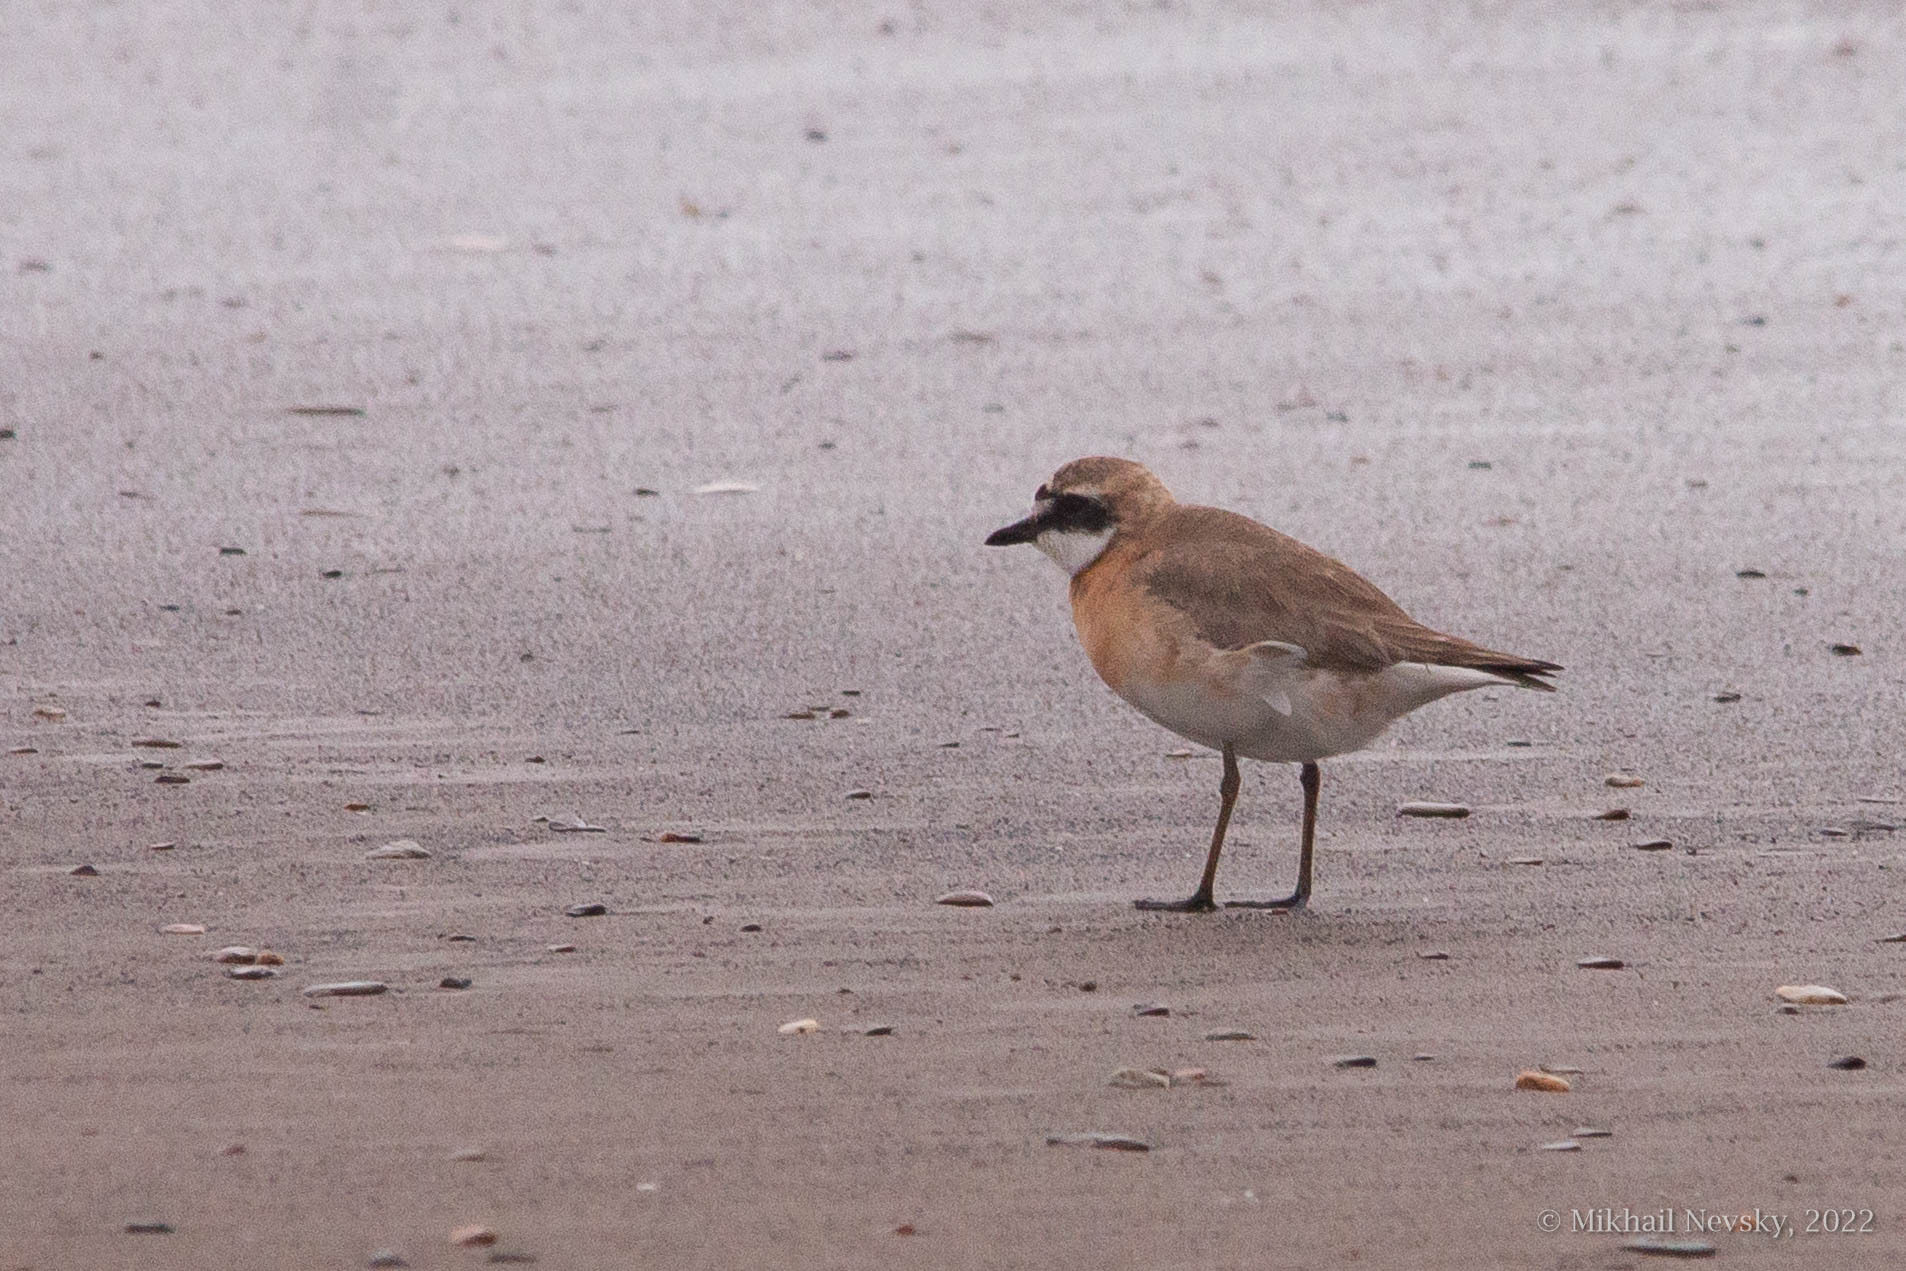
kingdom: Animalia
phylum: Chordata
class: Aves
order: Charadriiformes
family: Charadriidae
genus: Anarhynchus
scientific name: Anarhynchus
